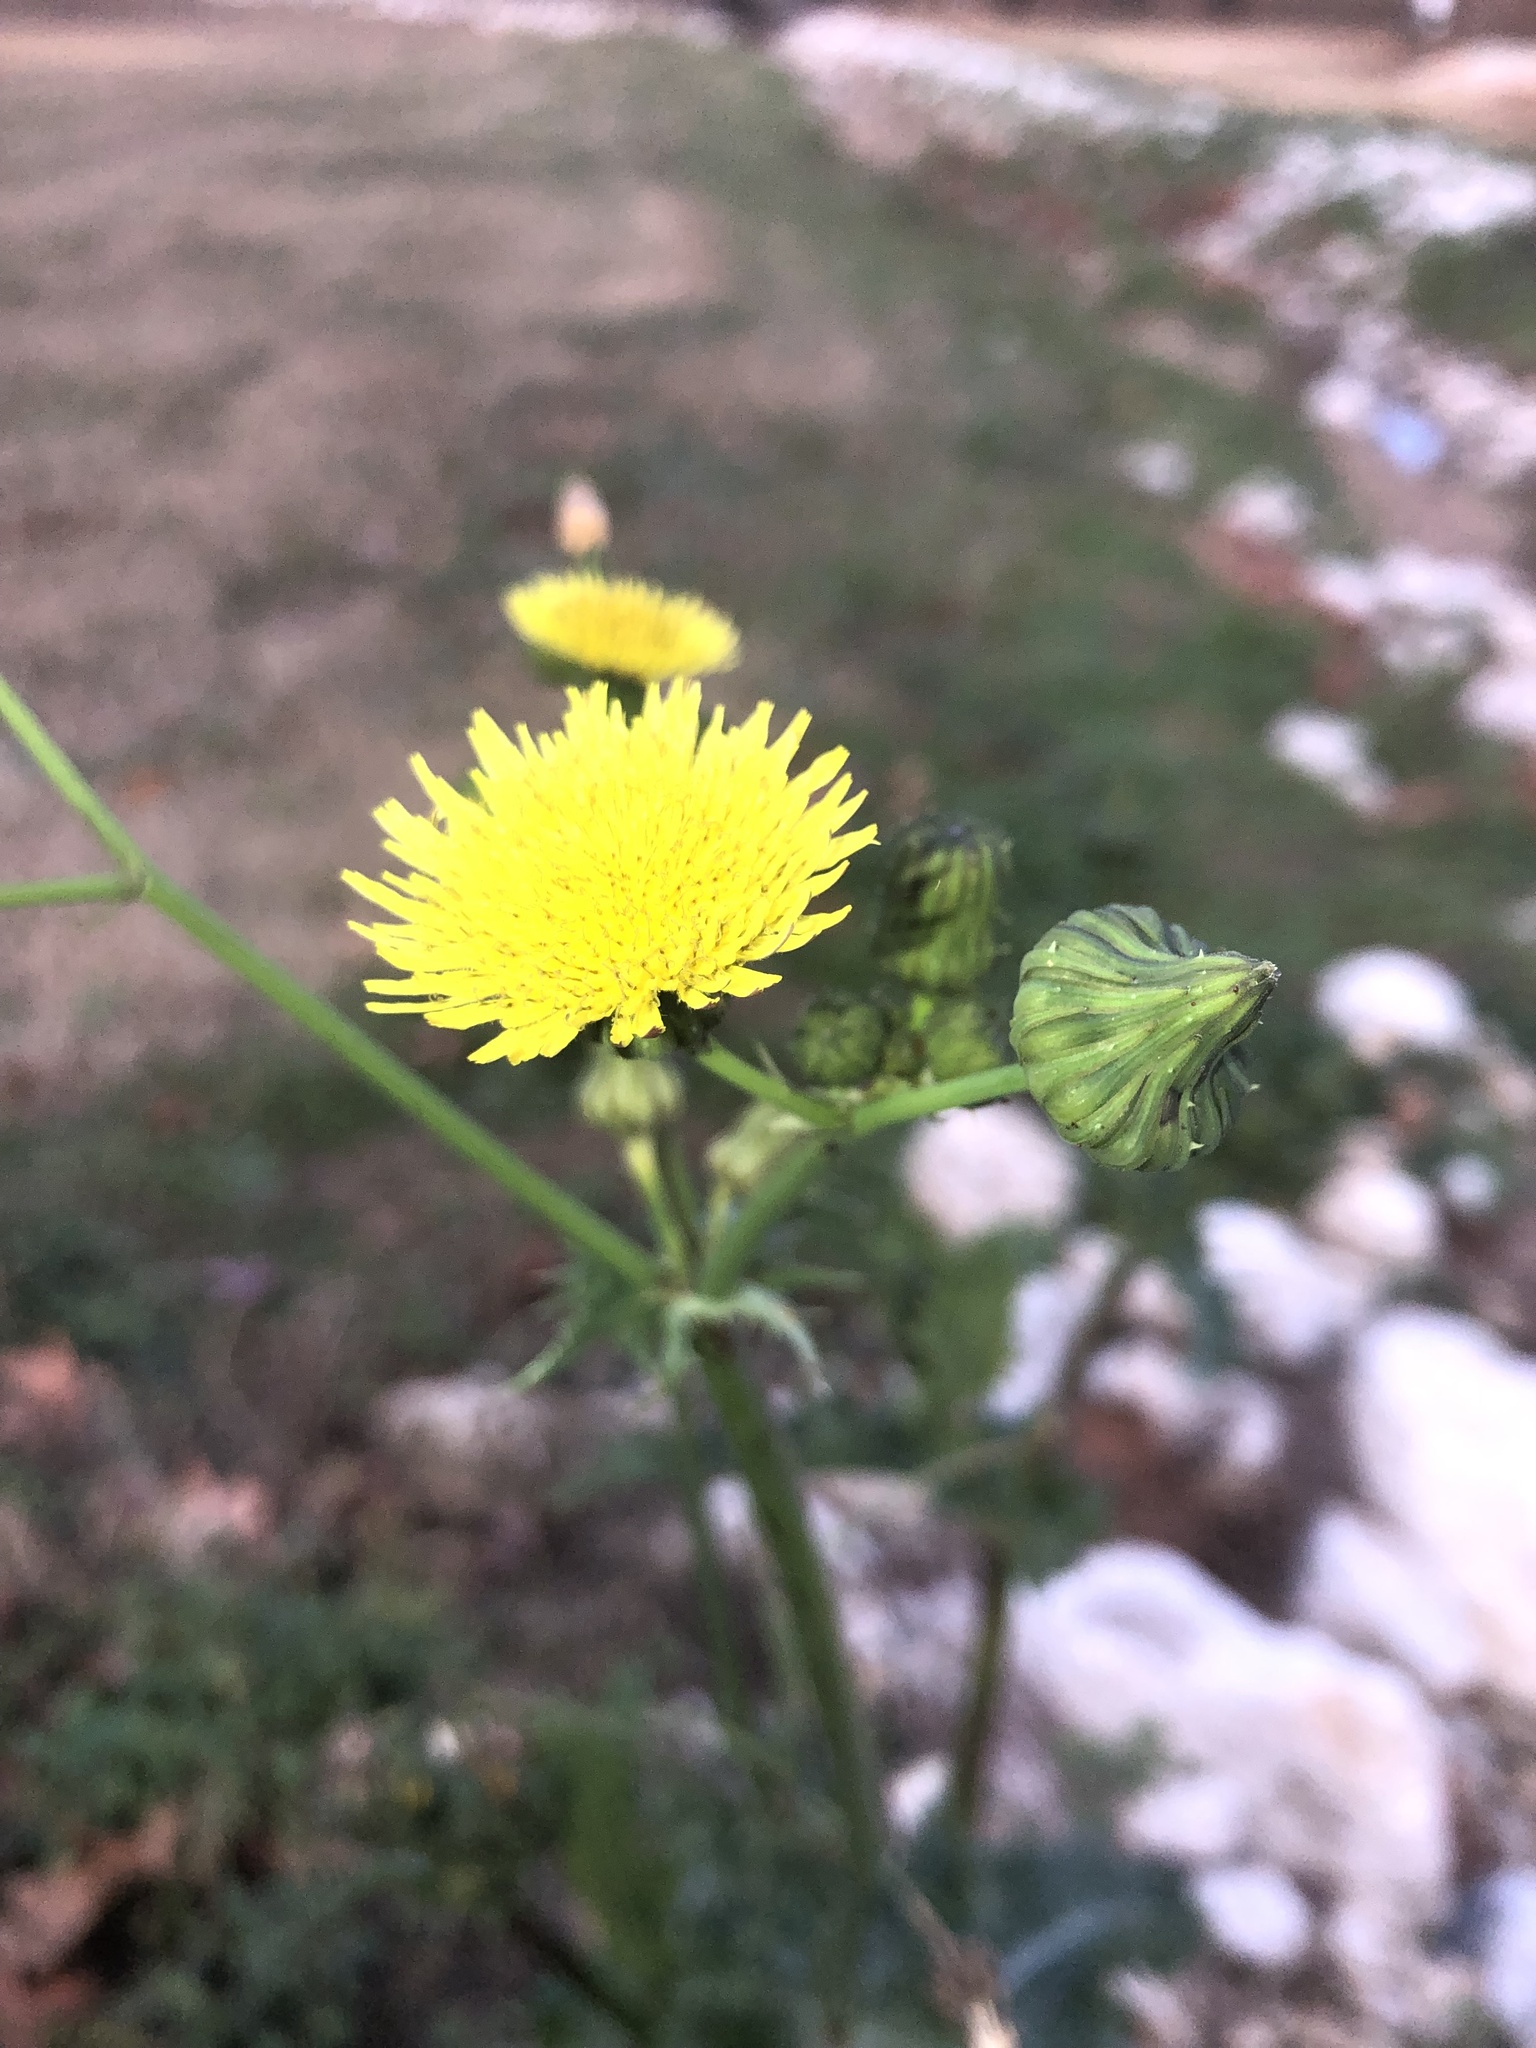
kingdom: Plantae
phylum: Tracheophyta
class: Magnoliopsida
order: Asterales
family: Asteraceae
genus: Sonchus
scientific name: Sonchus asper
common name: Prickly sow-thistle
